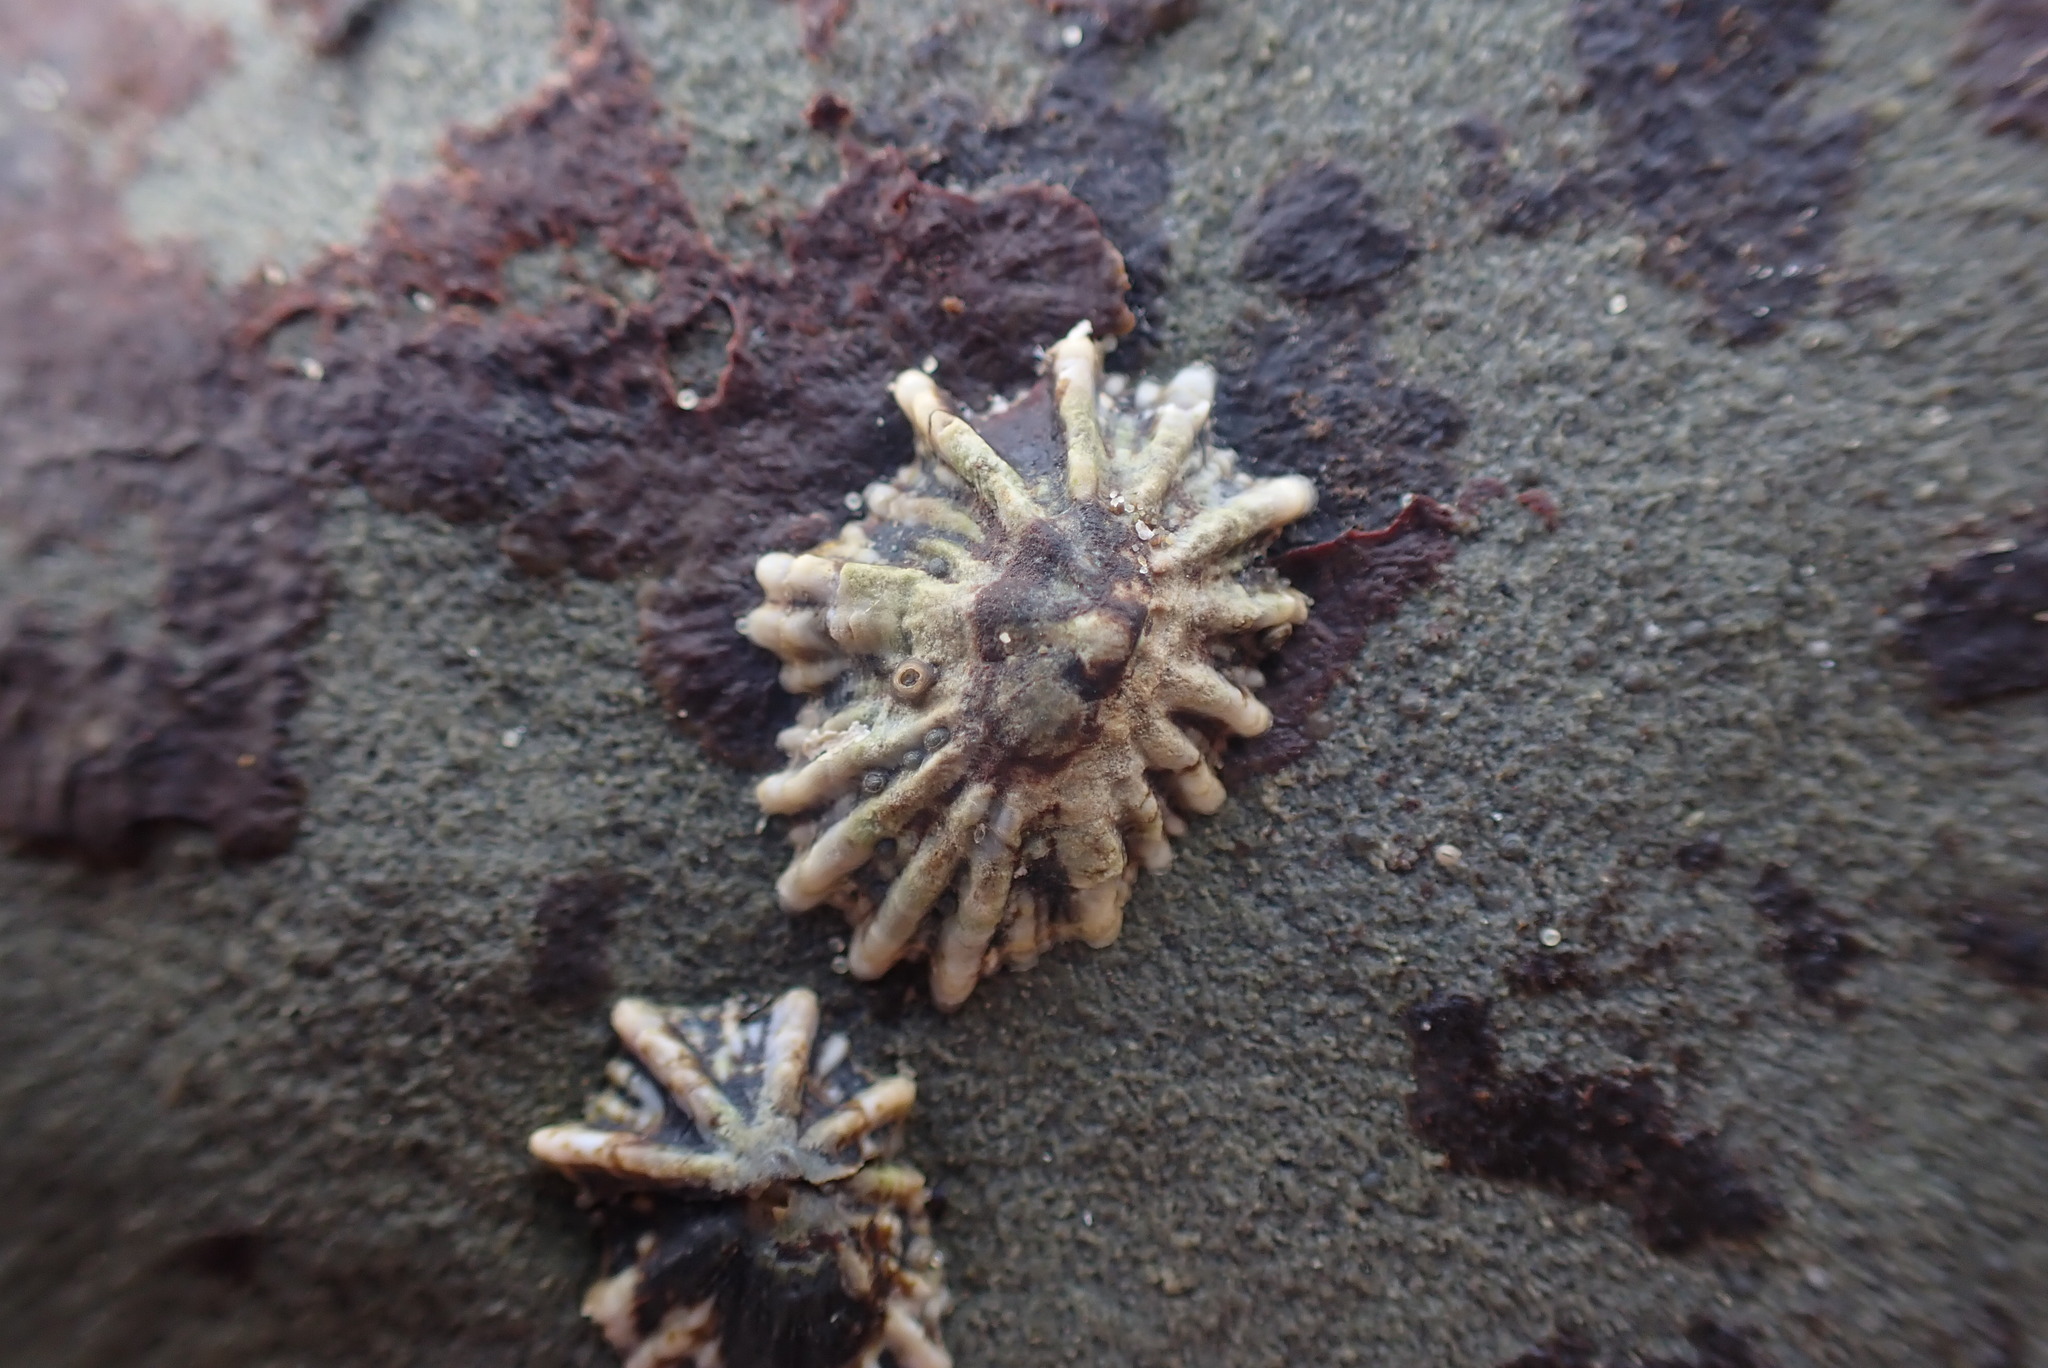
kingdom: Animalia
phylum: Mollusca
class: Gastropoda
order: Siphonariida
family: Siphonariidae
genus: Siphonaria
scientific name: Siphonaria australis
